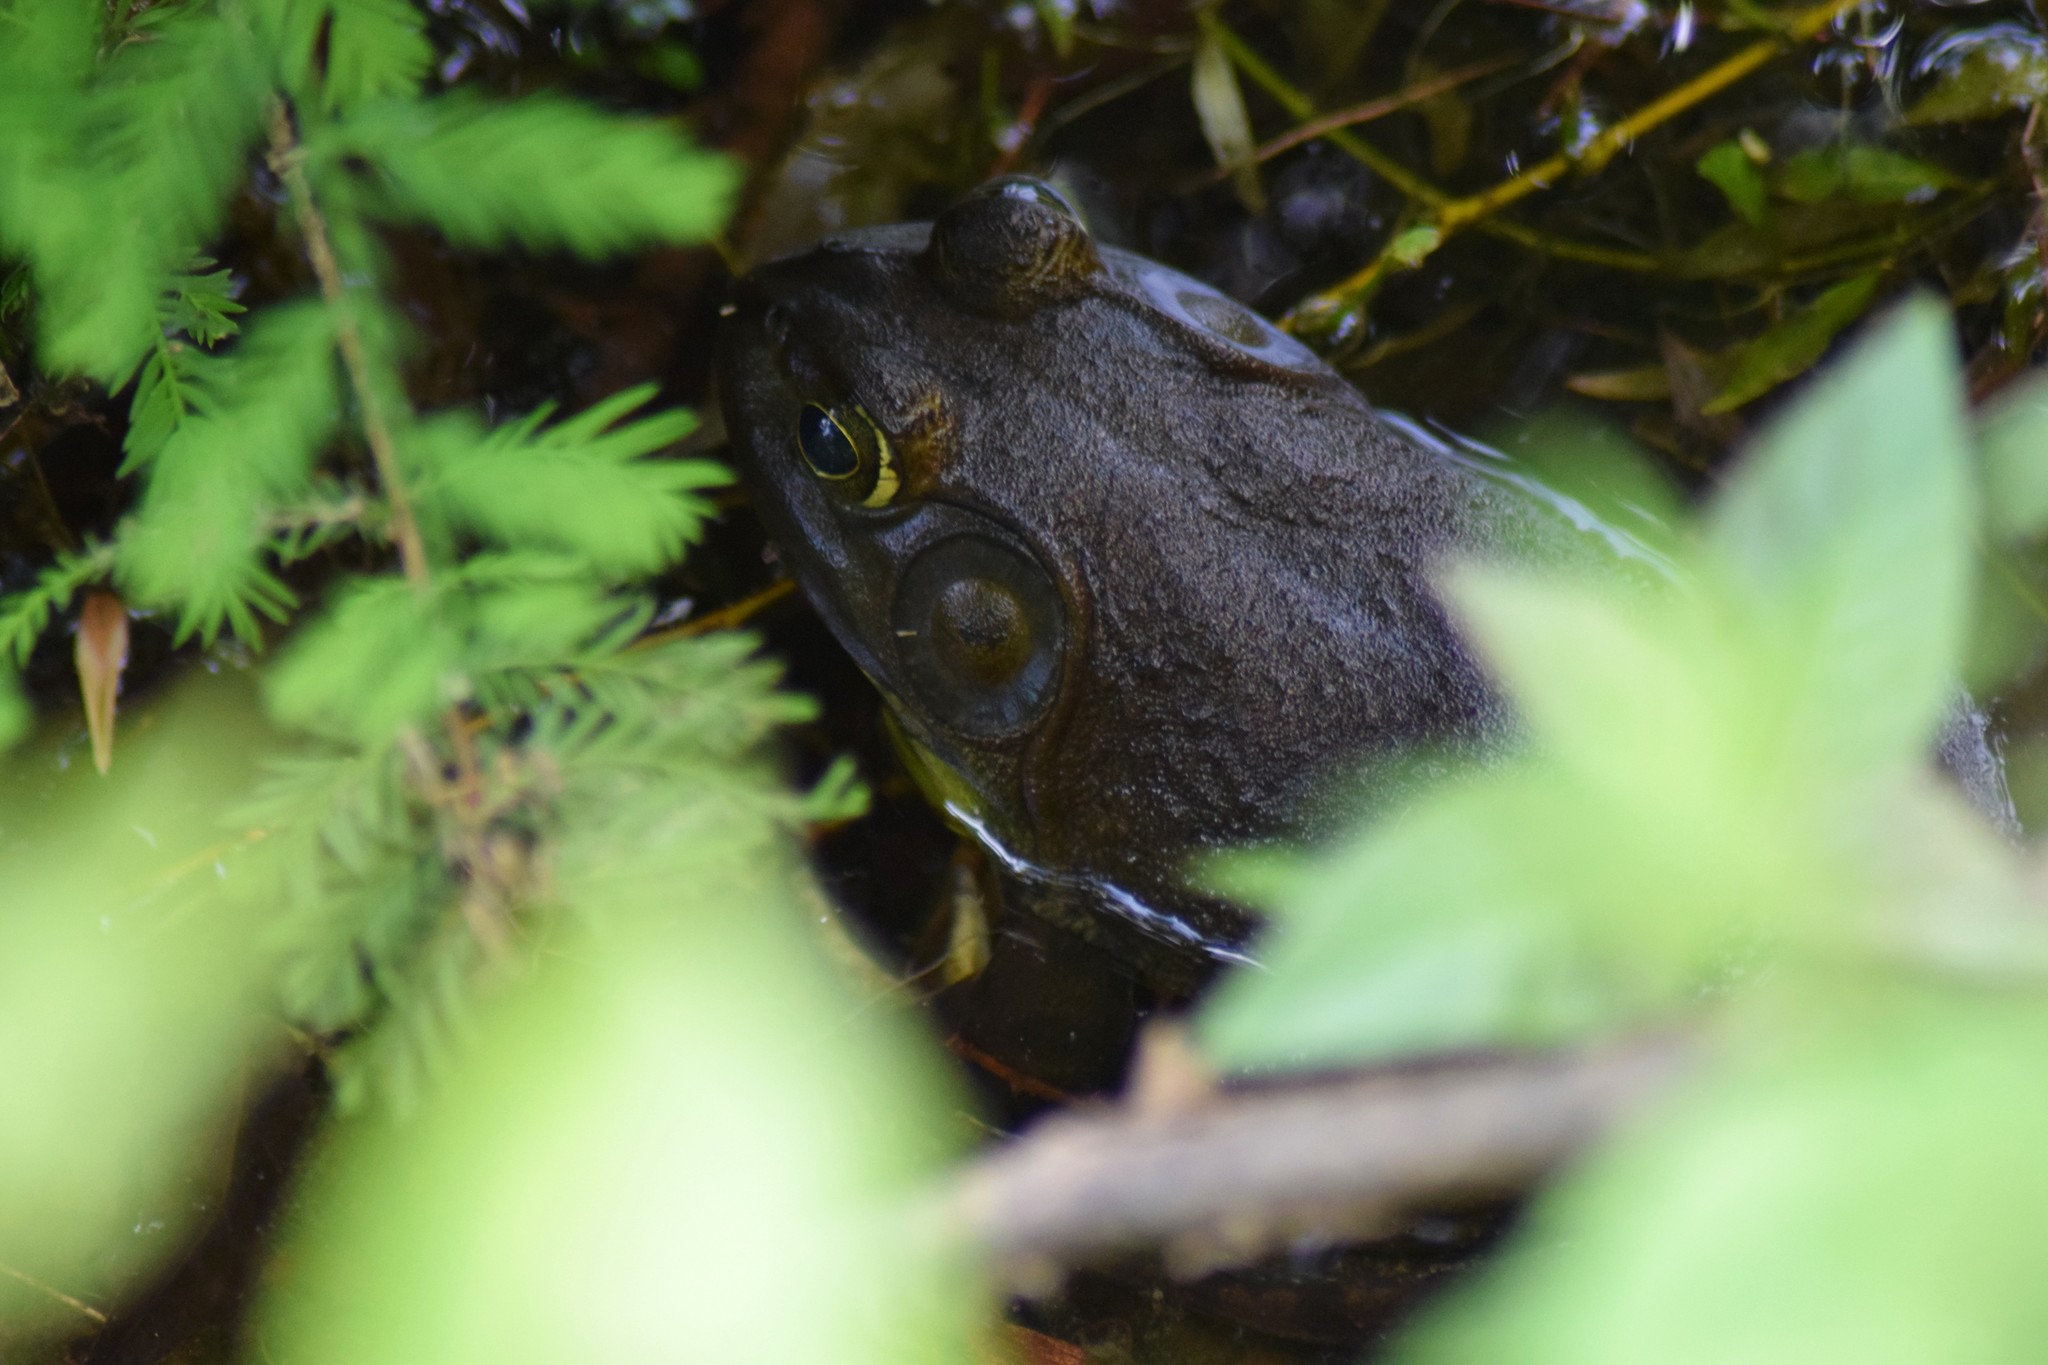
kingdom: Animalia
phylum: Chordata
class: Amphibia
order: Anura
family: Ranidae
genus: Lithobates
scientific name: Lithobates catesbeianus
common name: American bullfrog
